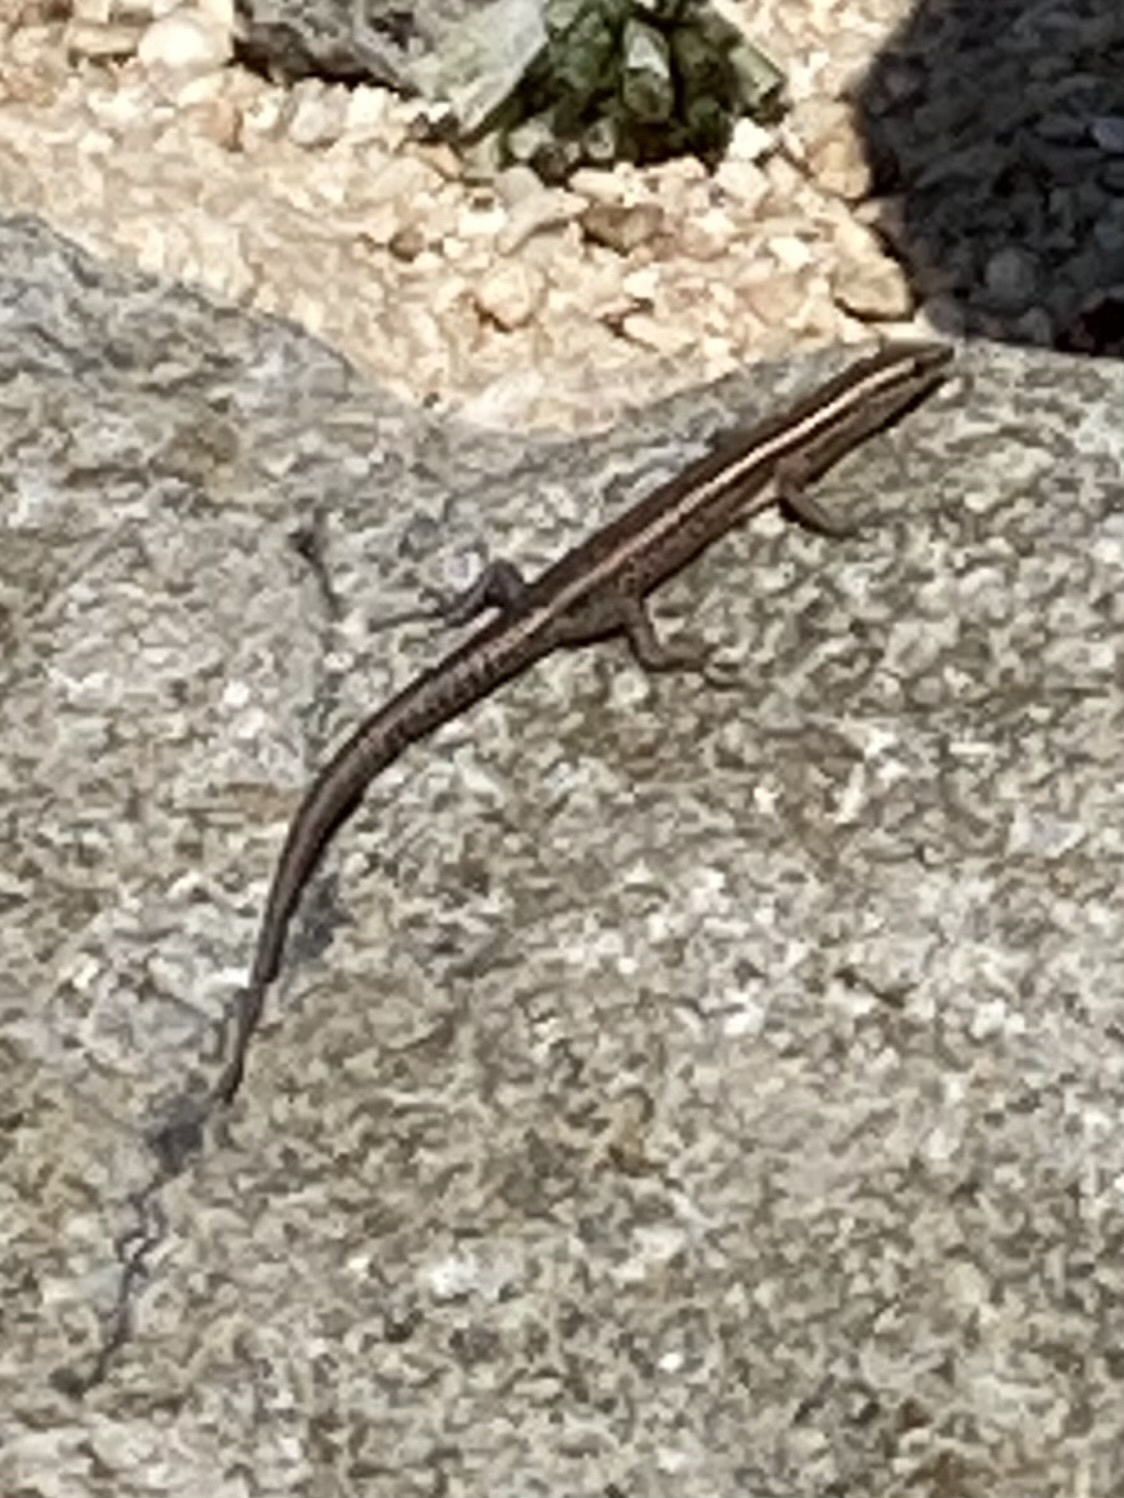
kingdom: Animalia
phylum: Chordata
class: Squamata
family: Scincidae
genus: Cryptoblepharus
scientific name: Cryptoblepharus eximius
